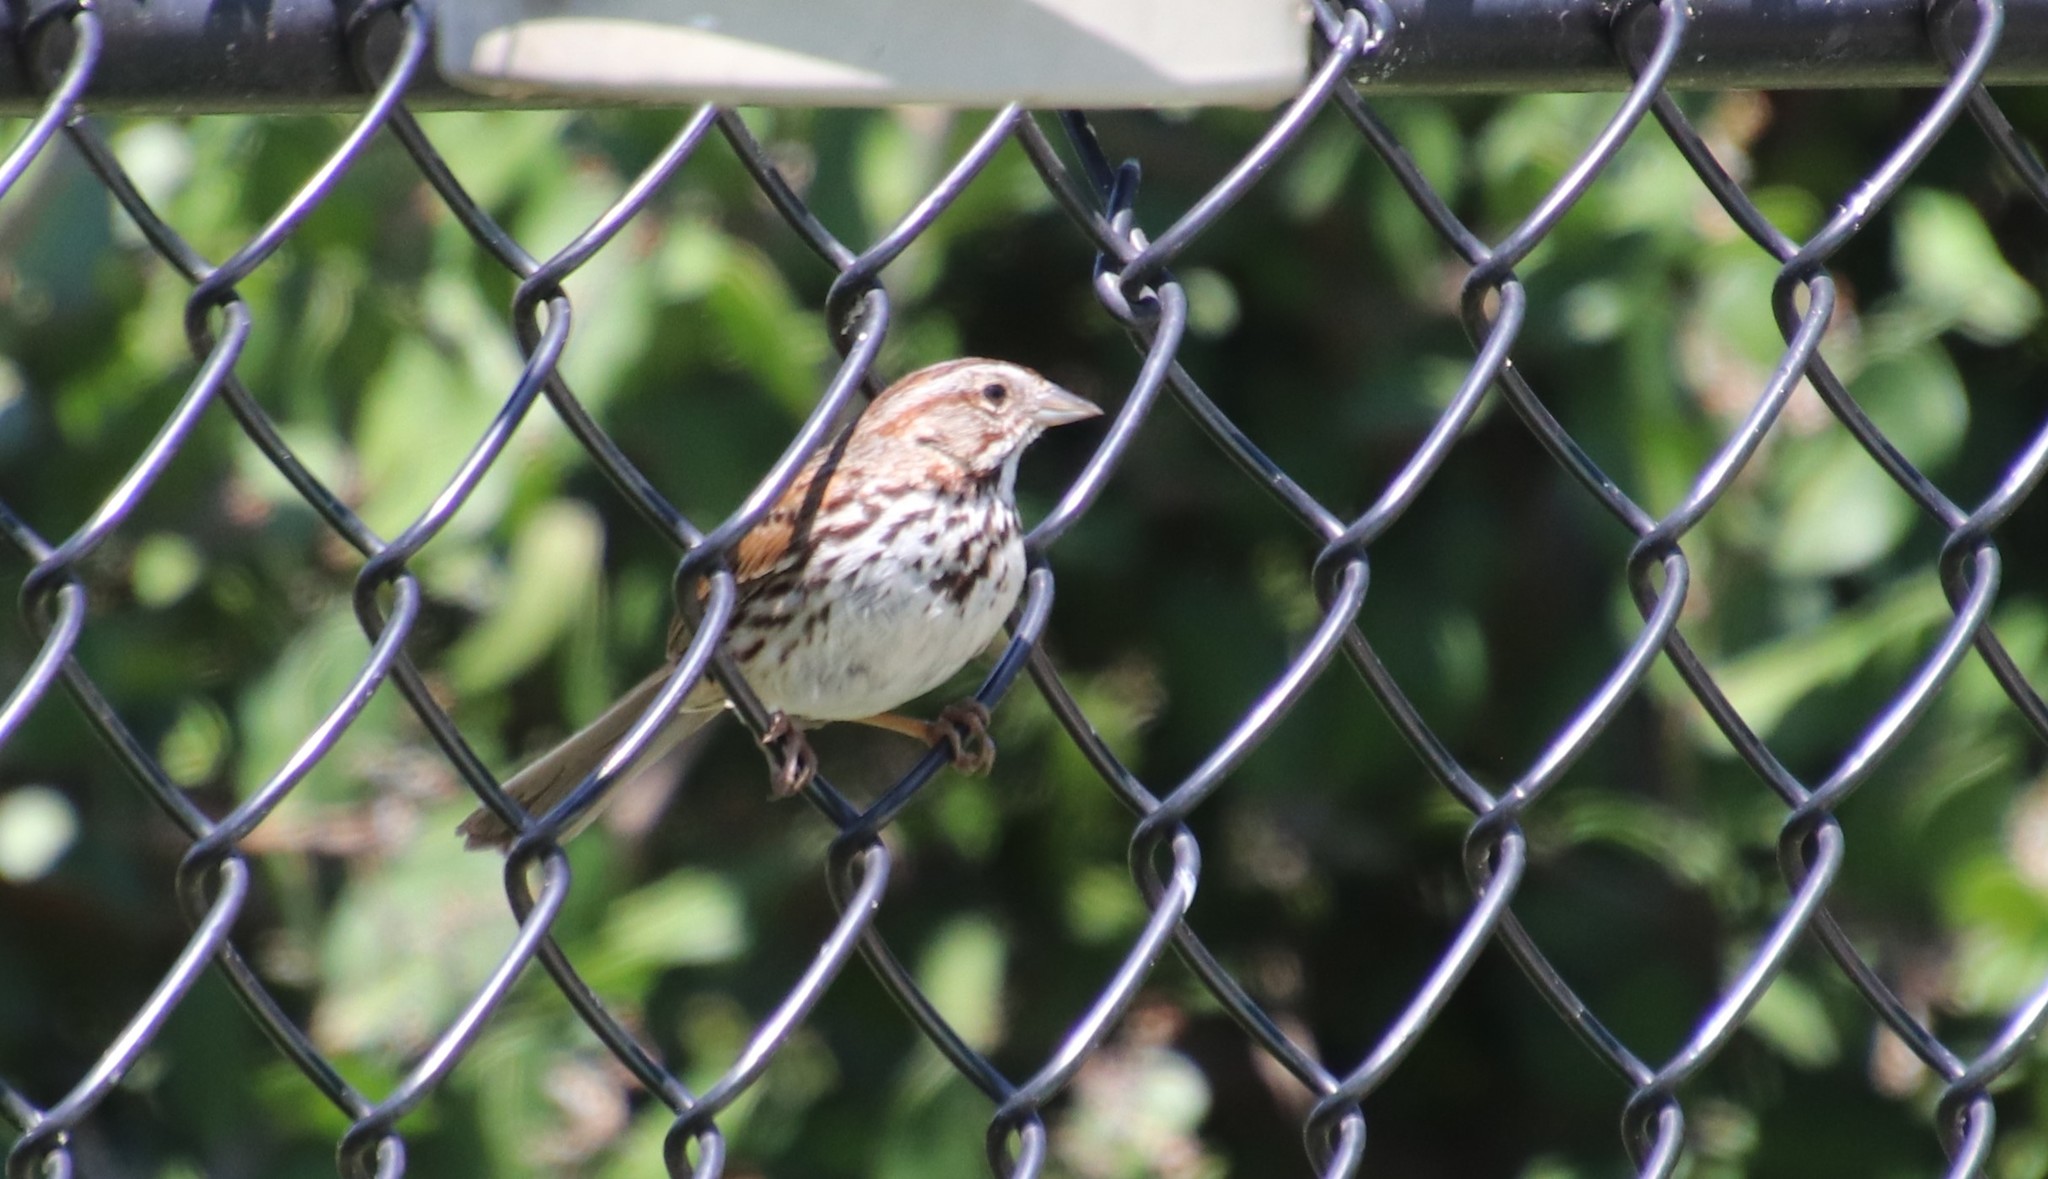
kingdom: Animalia
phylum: Chordata
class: Aves
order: Passeriformes
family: Passerellidae
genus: Melospiza
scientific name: Melospiza melodia
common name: Song sparrow
